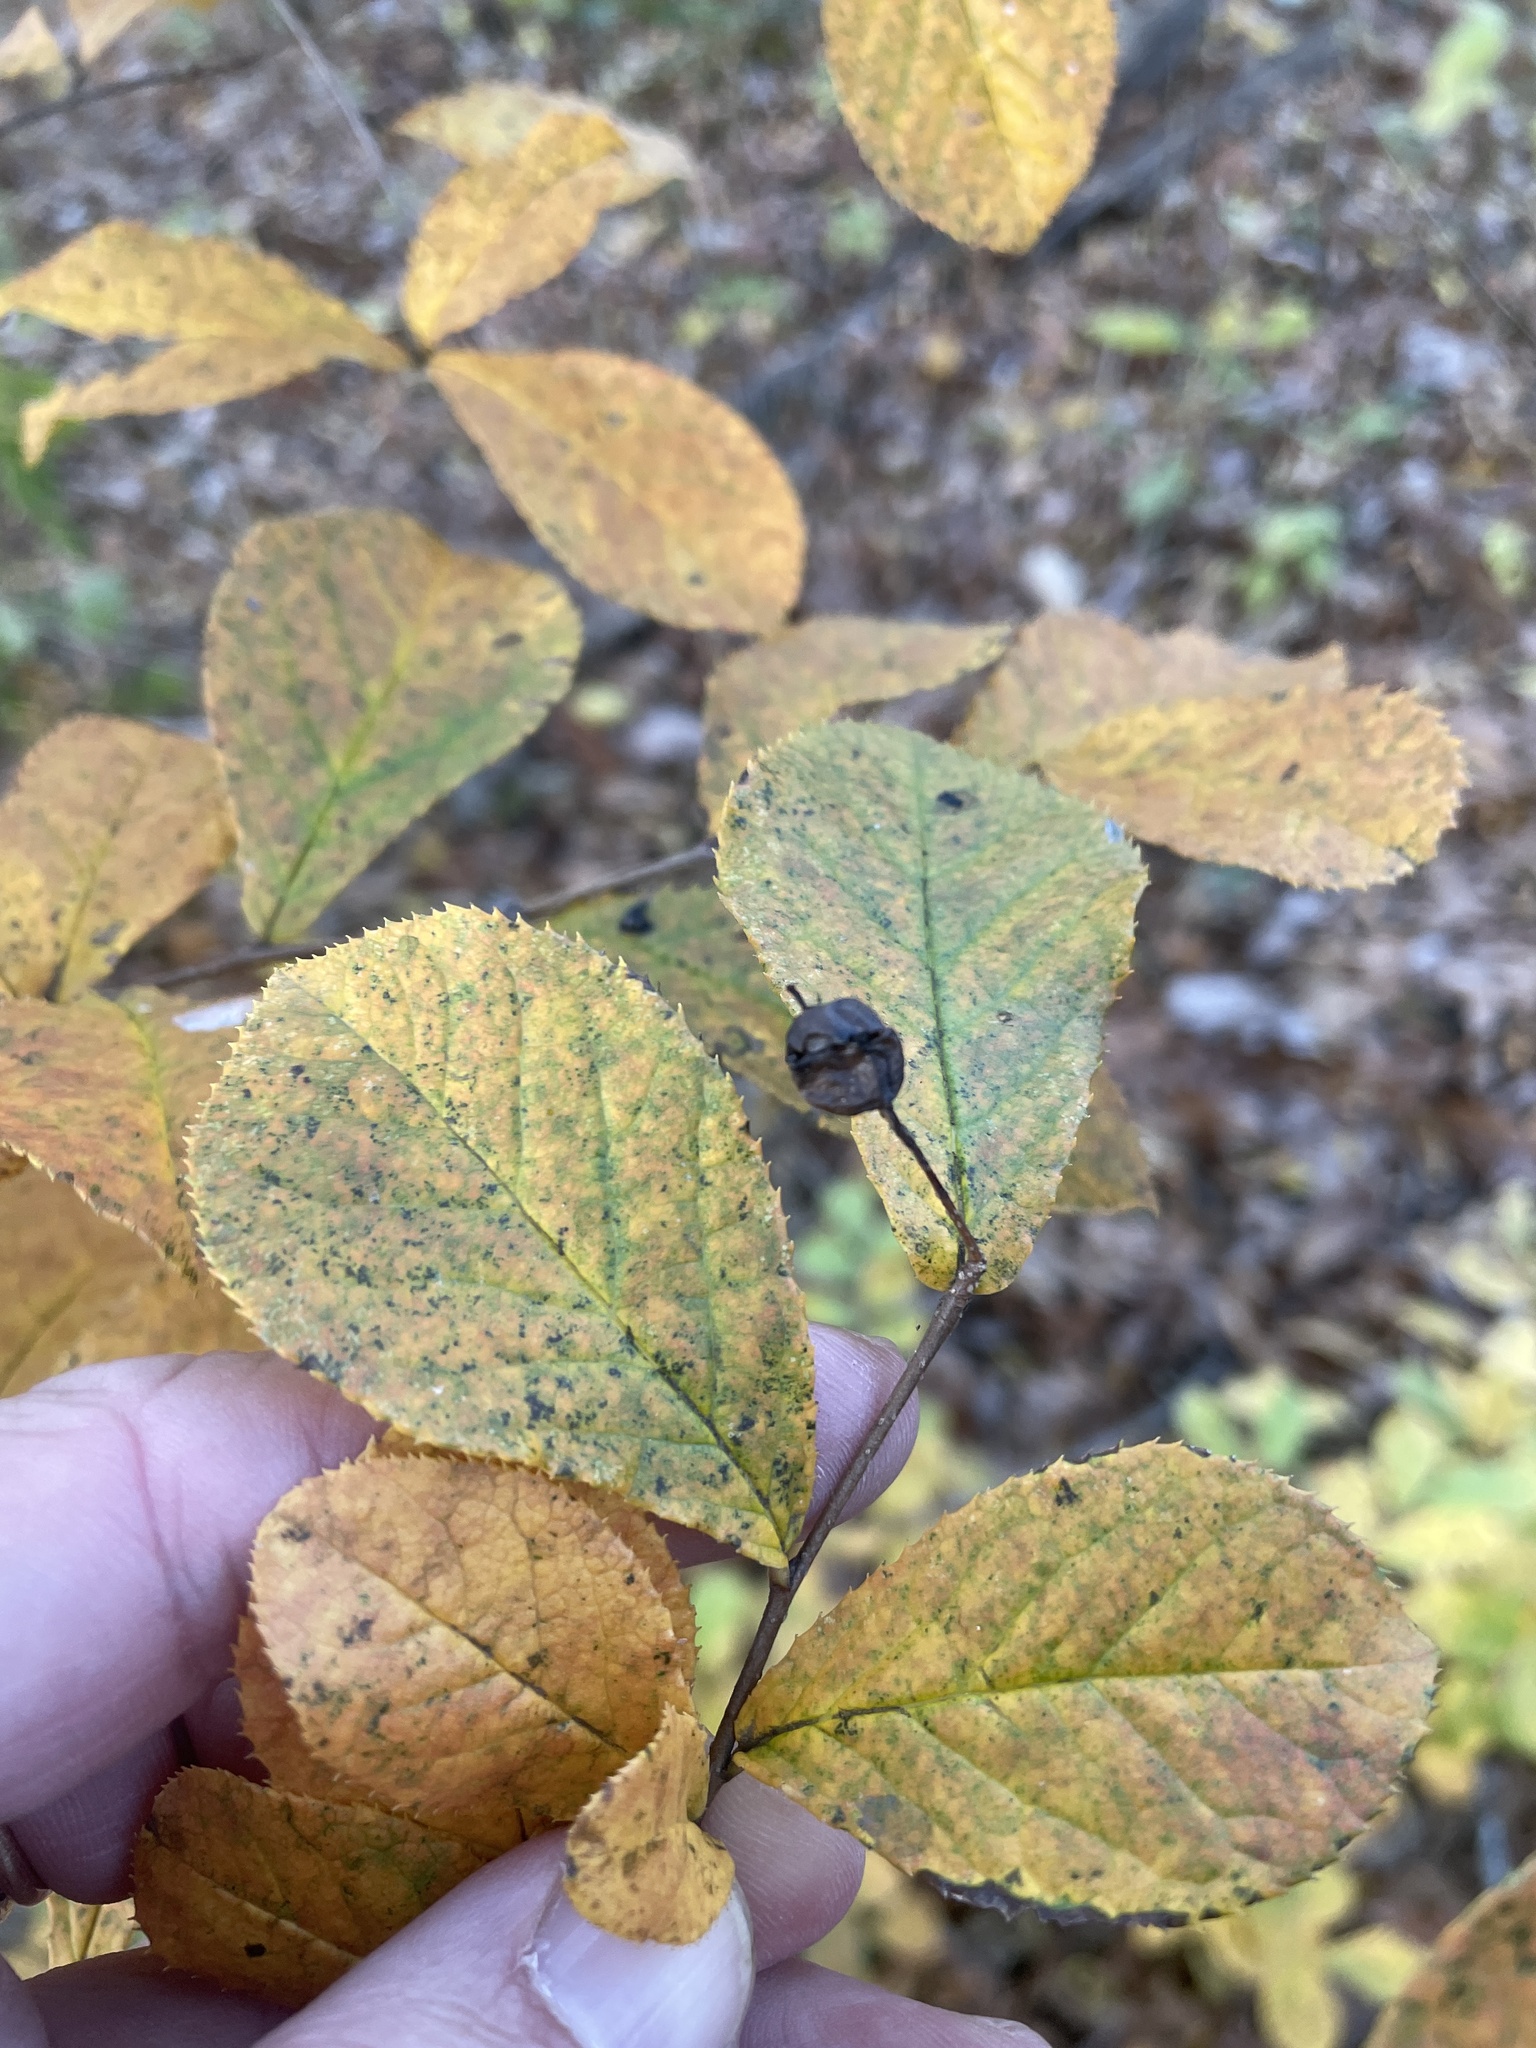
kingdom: Plantae
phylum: Tracheophyta
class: Magnoliopsida
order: Rosales
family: Rosaceae
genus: Pourthiaea
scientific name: Pourthiaea villosa
